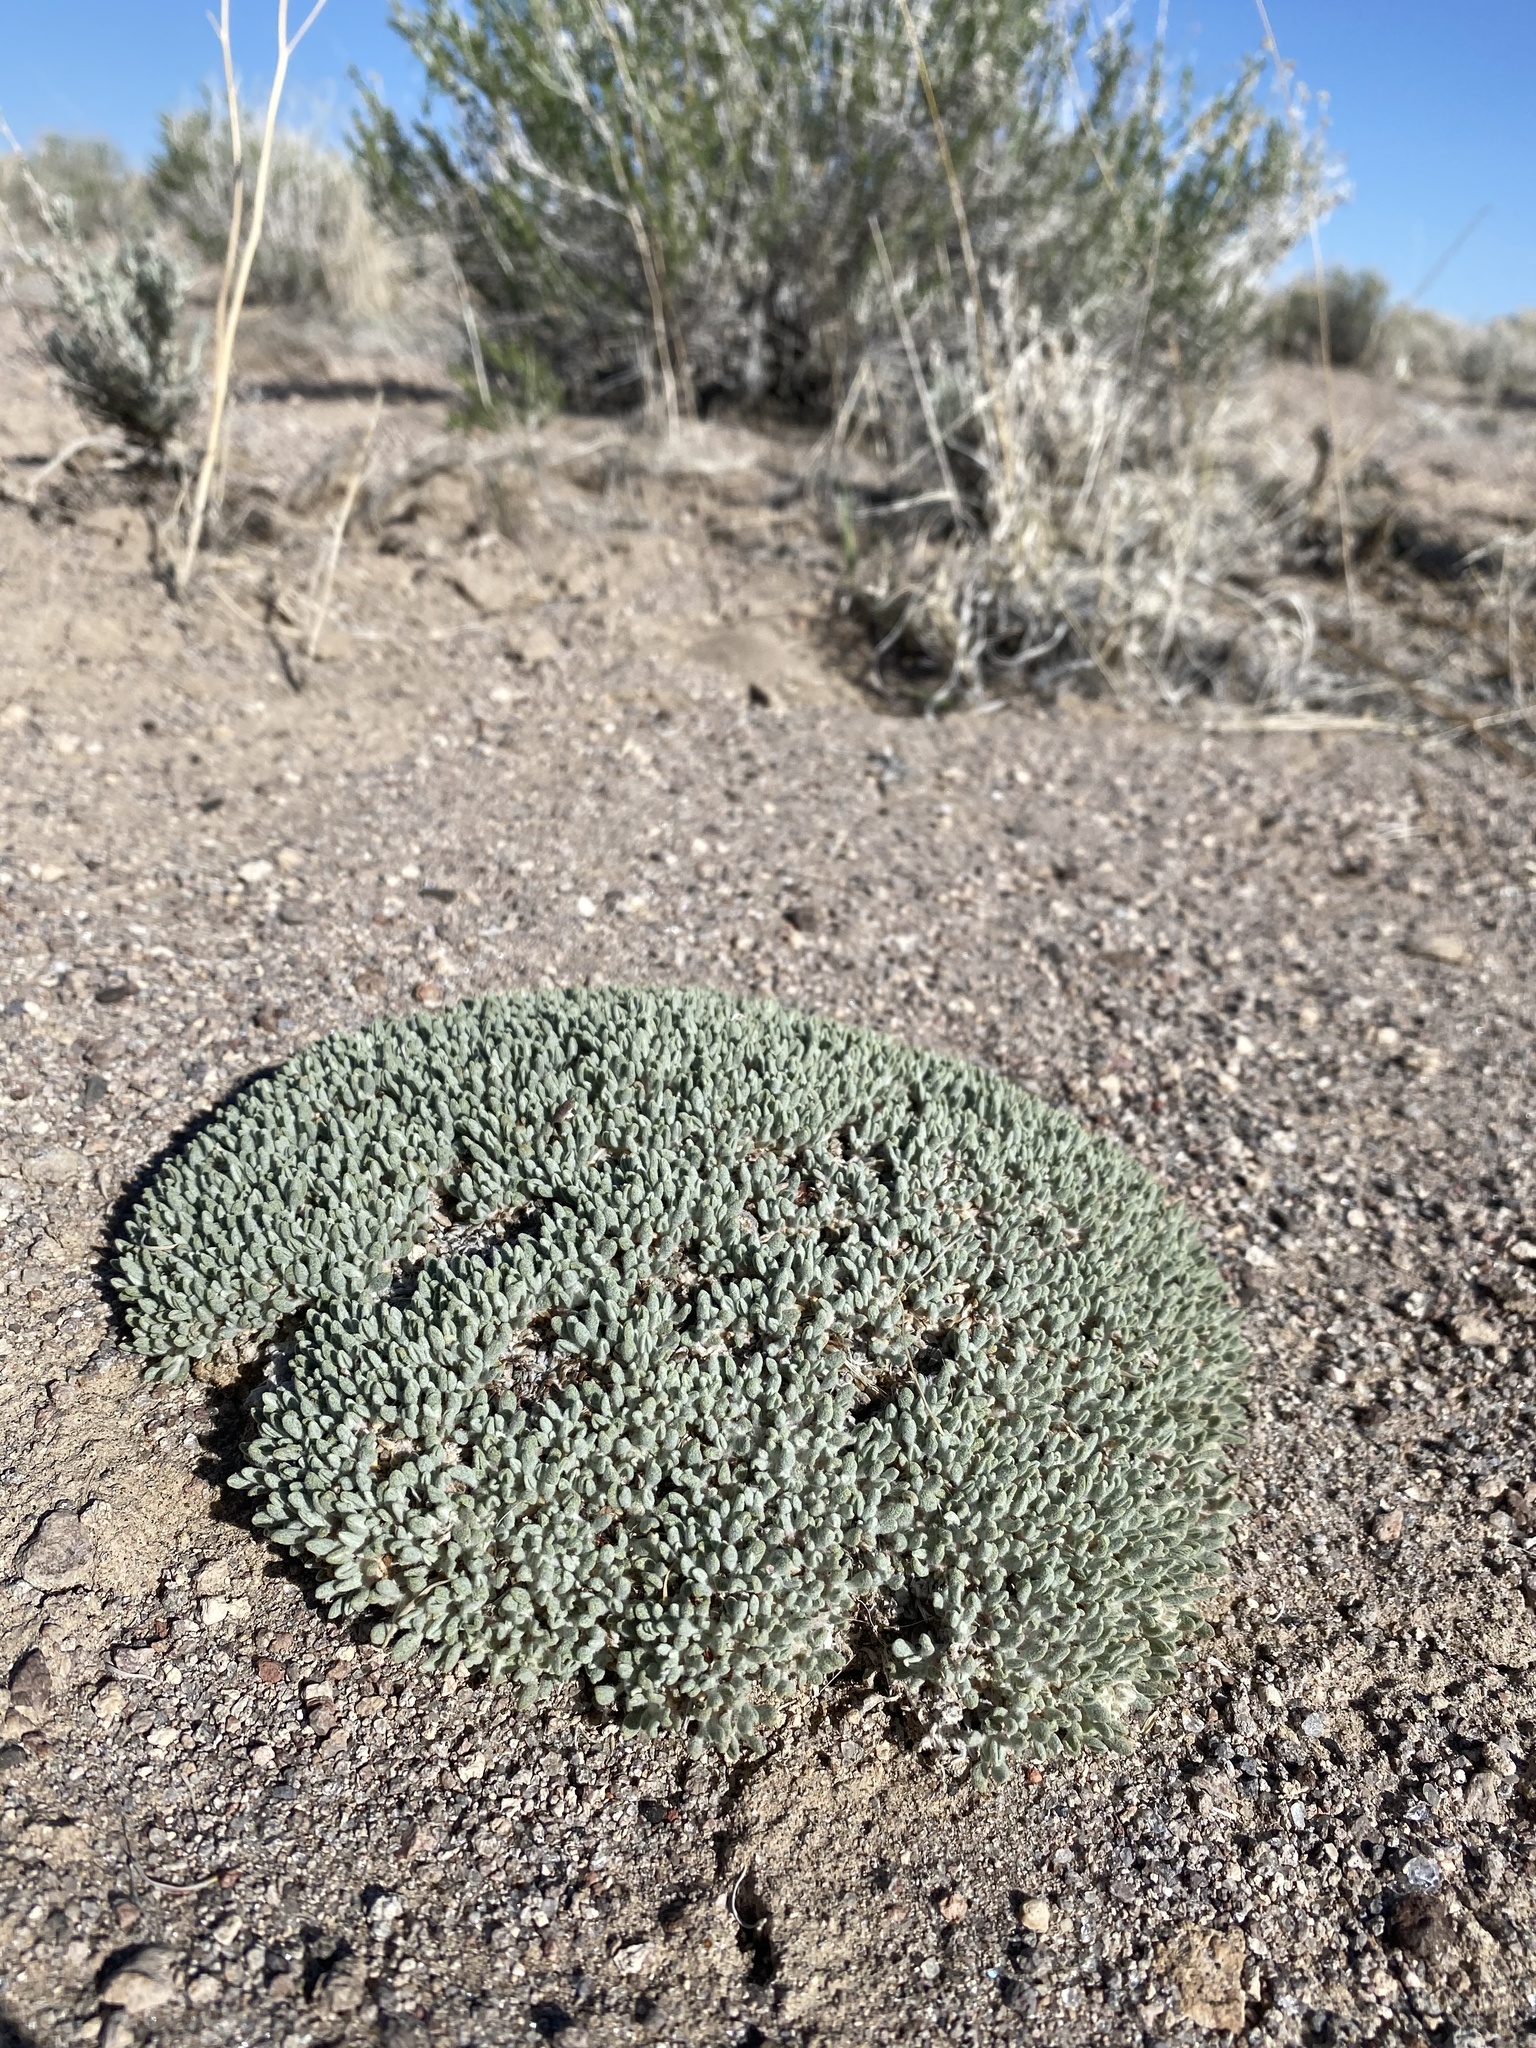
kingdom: Plantae
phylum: Tracheophyta
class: Magnoliopsida
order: Caryophyllales
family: Polygonaceae
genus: Eriogonum
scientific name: Eriogonum shockleyi
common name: Shockley's wild buckwheat
